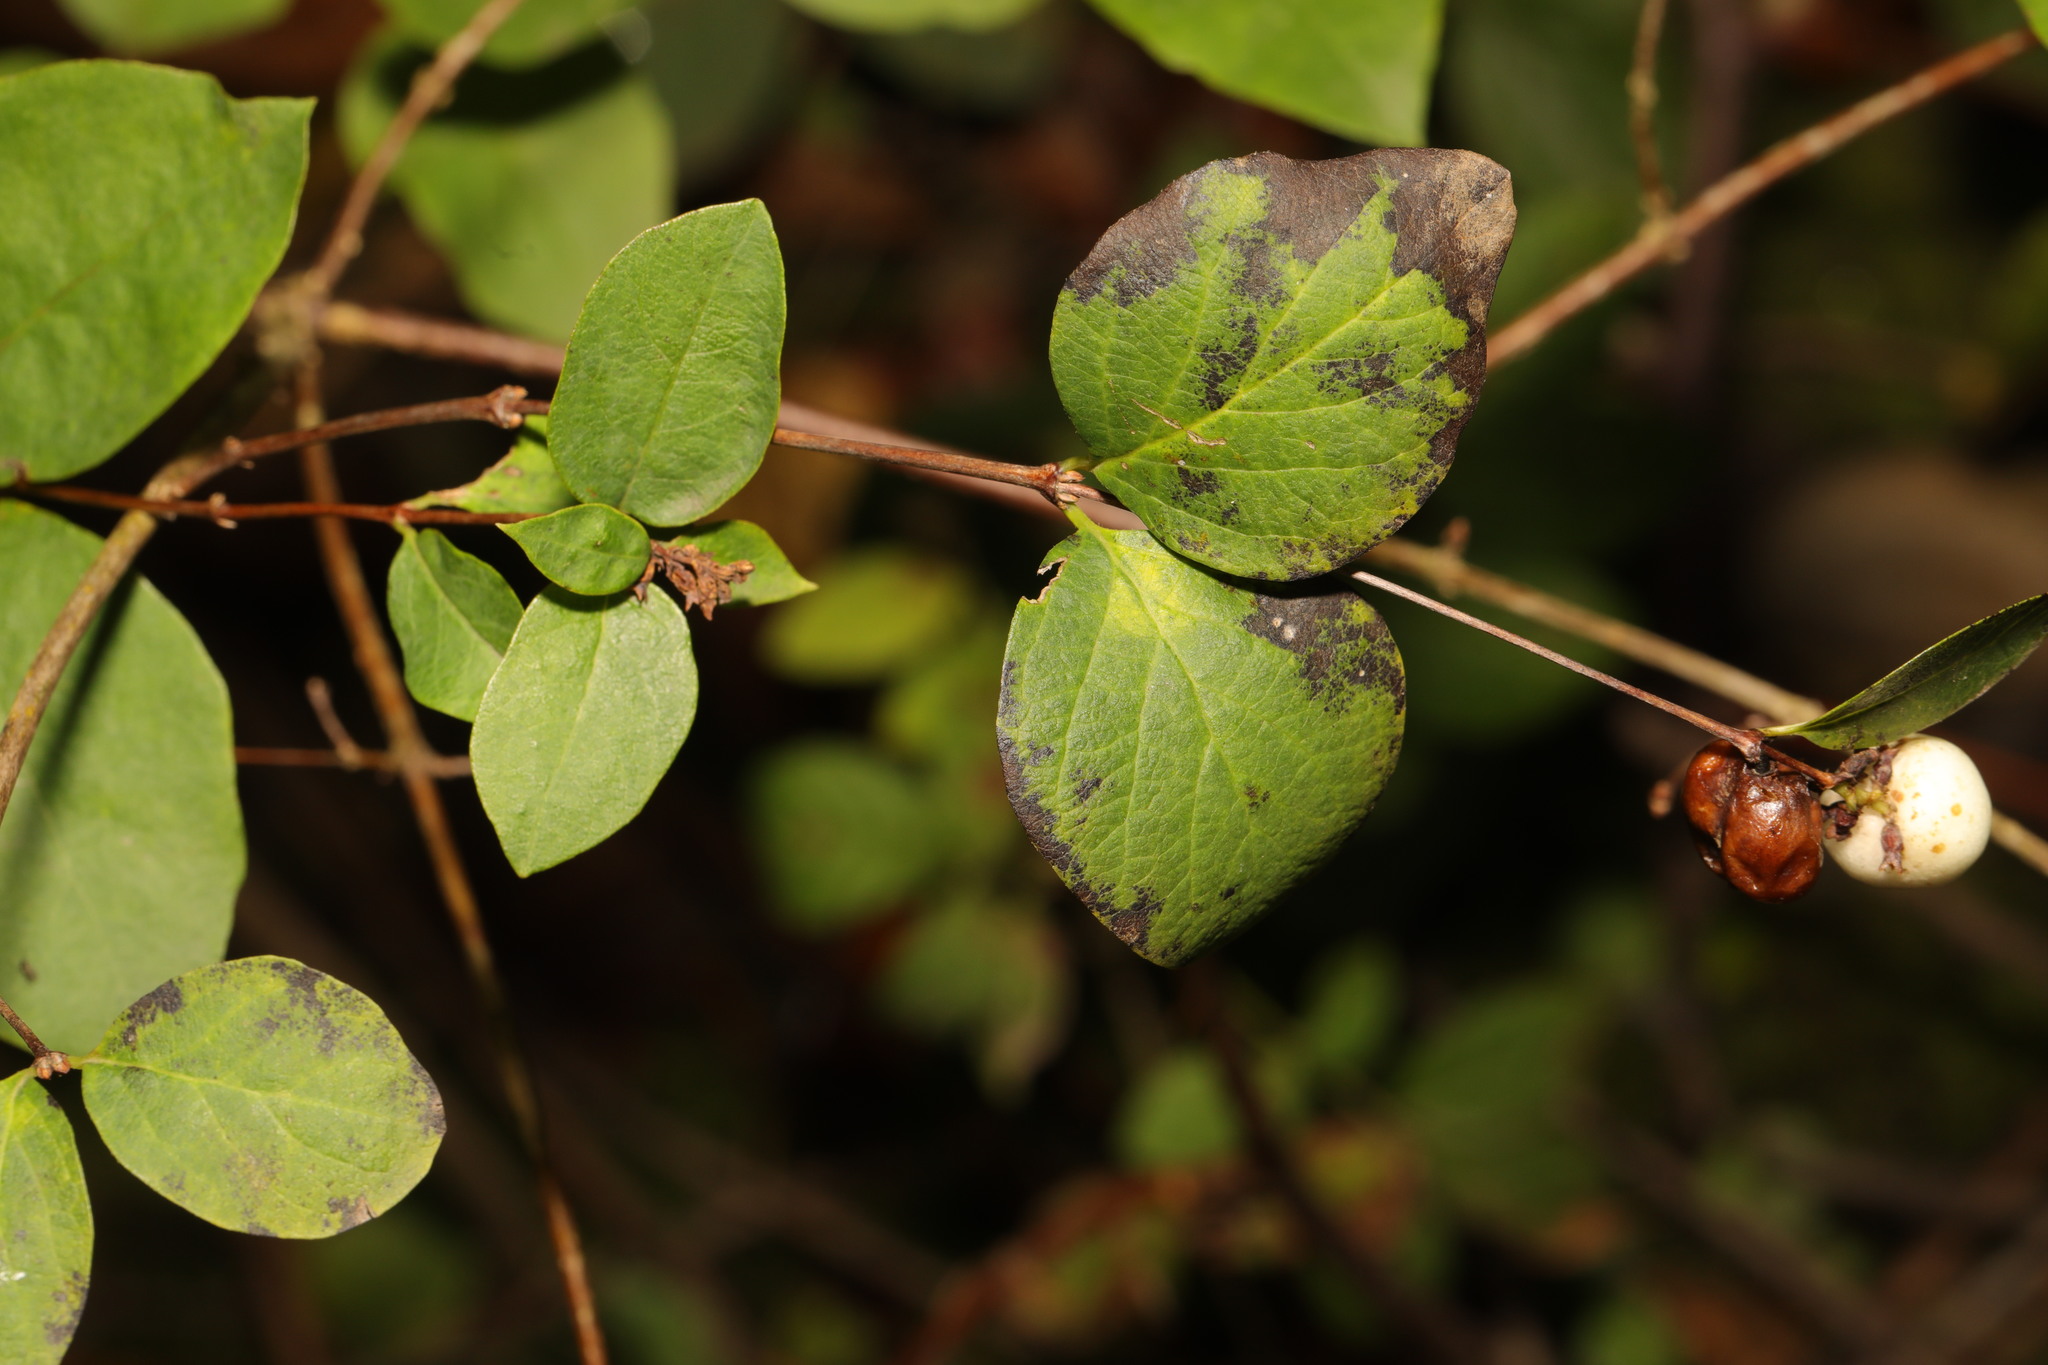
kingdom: Plantae
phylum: Tracheophyta
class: Magnoliopsida
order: Dipsacales
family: Caprifoliaceae
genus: Symphoricarpos
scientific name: Symphoricarpos albus
